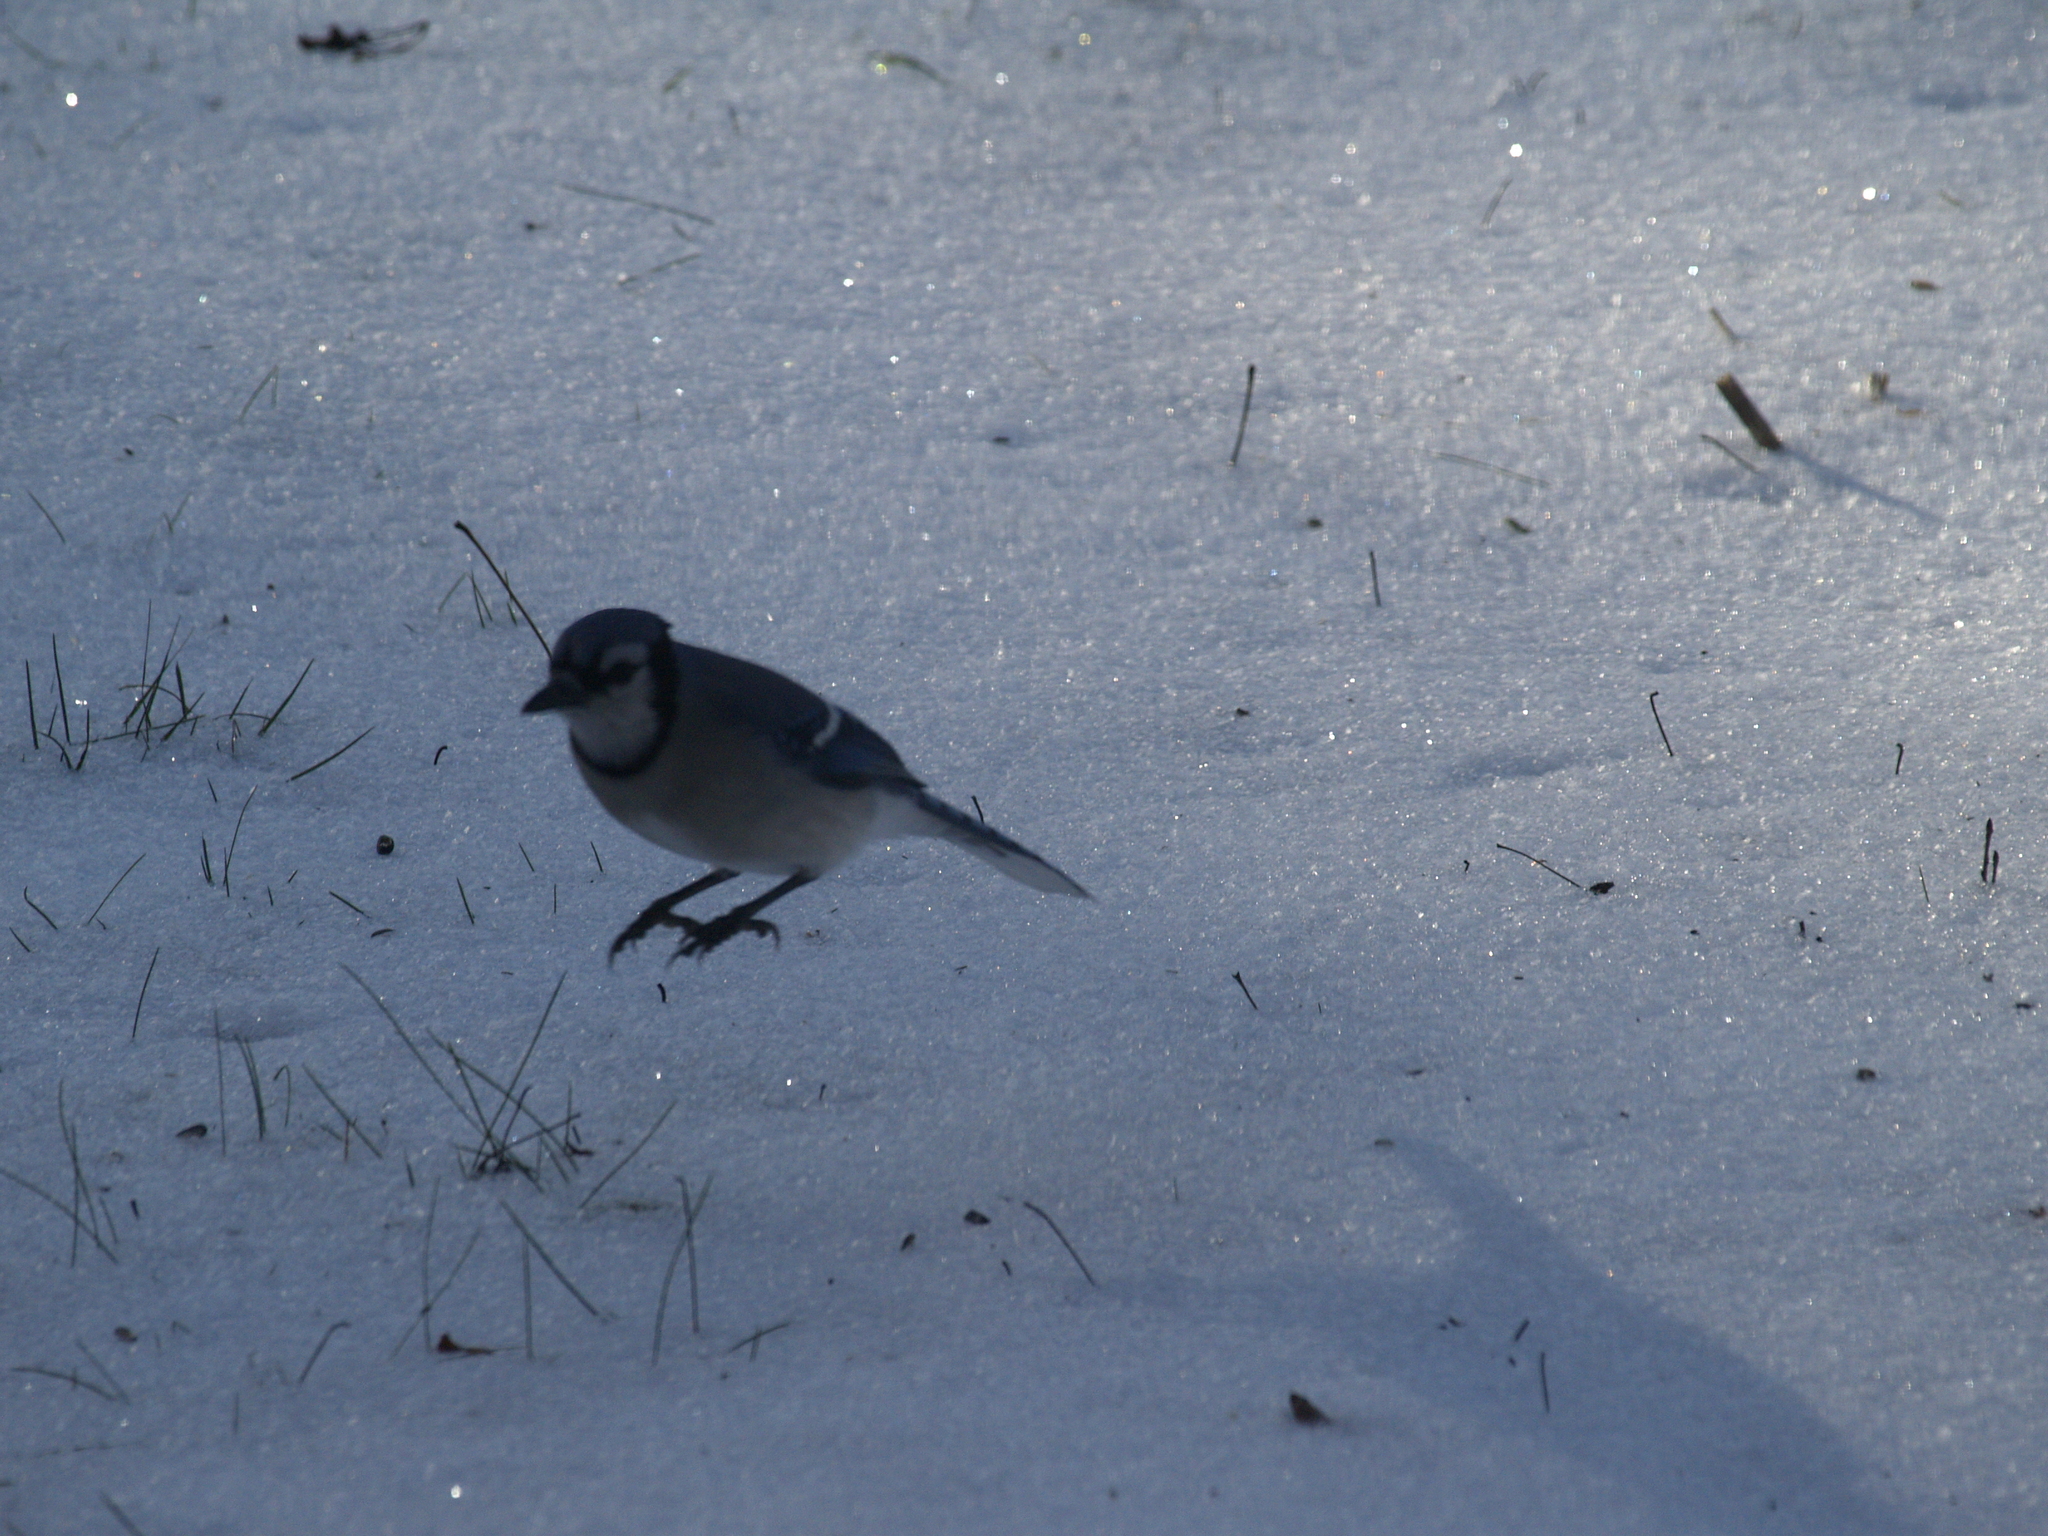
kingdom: Animalia
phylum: Chordata
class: Aves
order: Passeriformes
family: Corvidae
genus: Cyanocitta
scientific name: Cyanocitta cristata
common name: Blue jay
